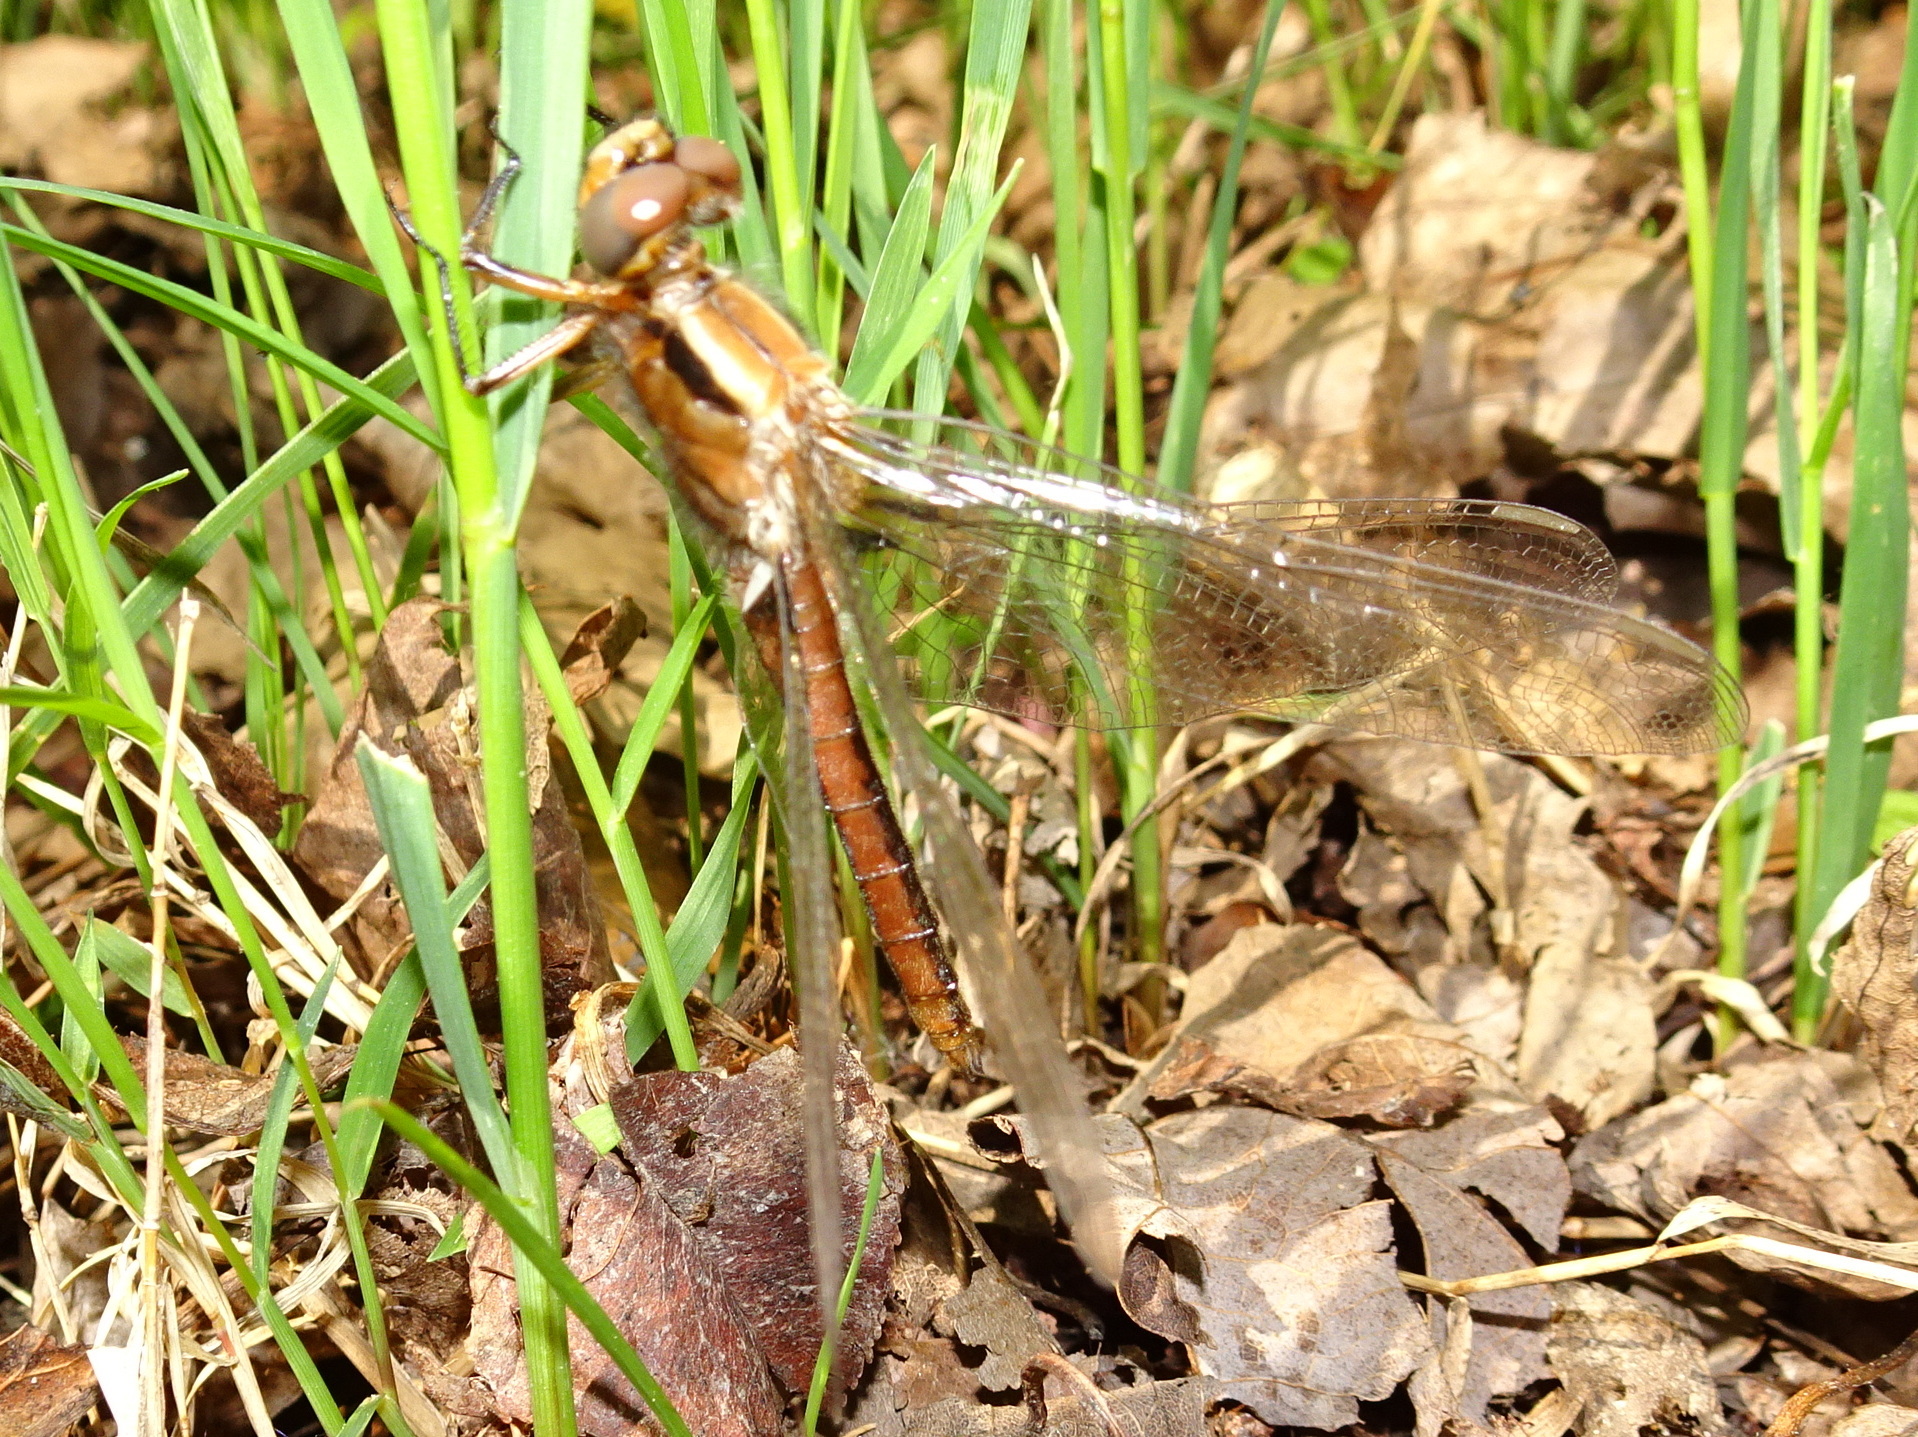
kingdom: Animalia
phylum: Arthropoda
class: Insecta
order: Odonata
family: Libellulidae
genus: Ladona
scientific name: Ladona julia
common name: Chalk-fronted corporal
